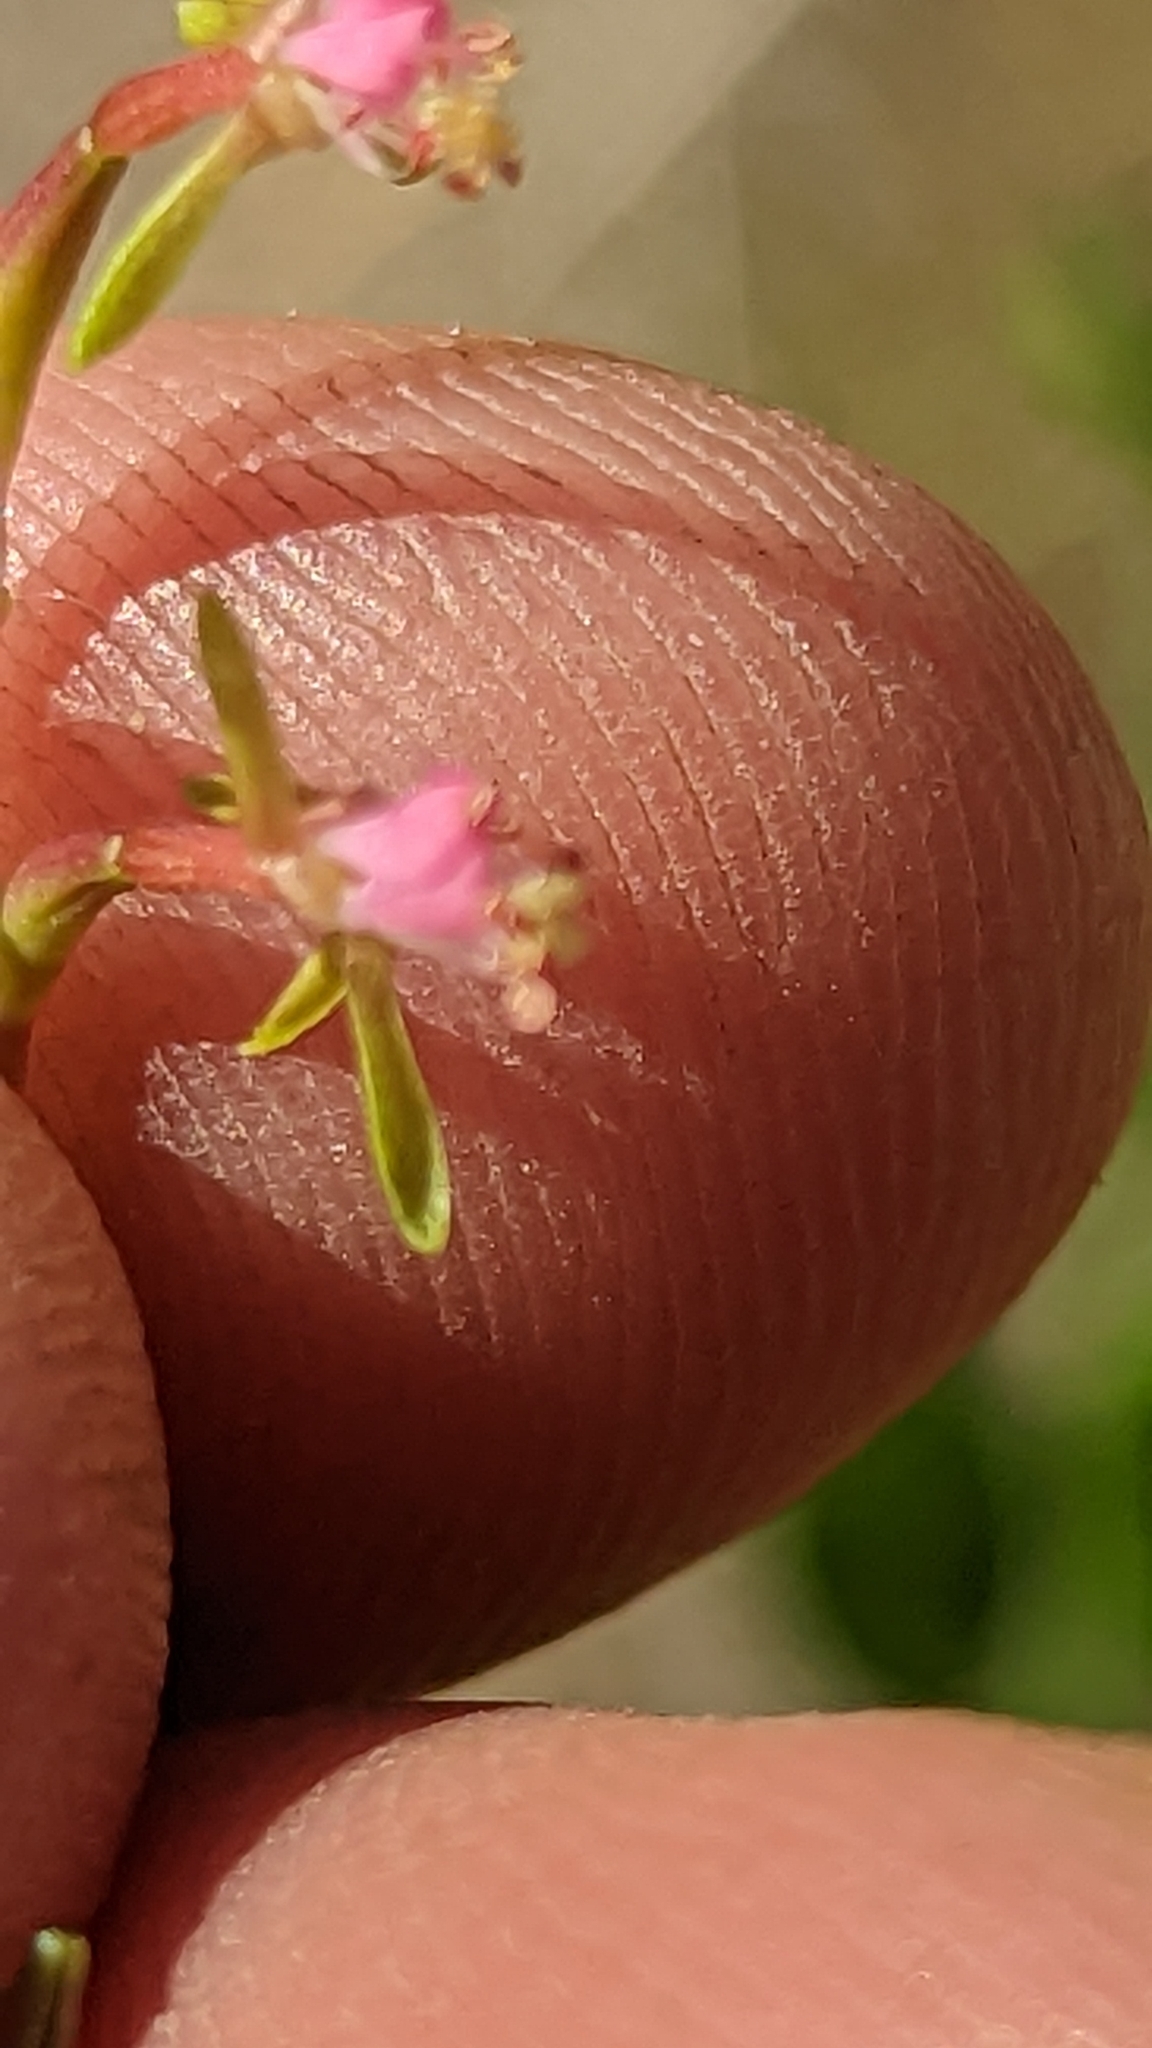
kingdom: Plantae
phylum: Tracheophyta
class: Magnoliopsida
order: Myrtales
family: Onagraceae
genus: Oenothera
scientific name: Oenothera suffrutescens
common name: Scarlet beeblossom
